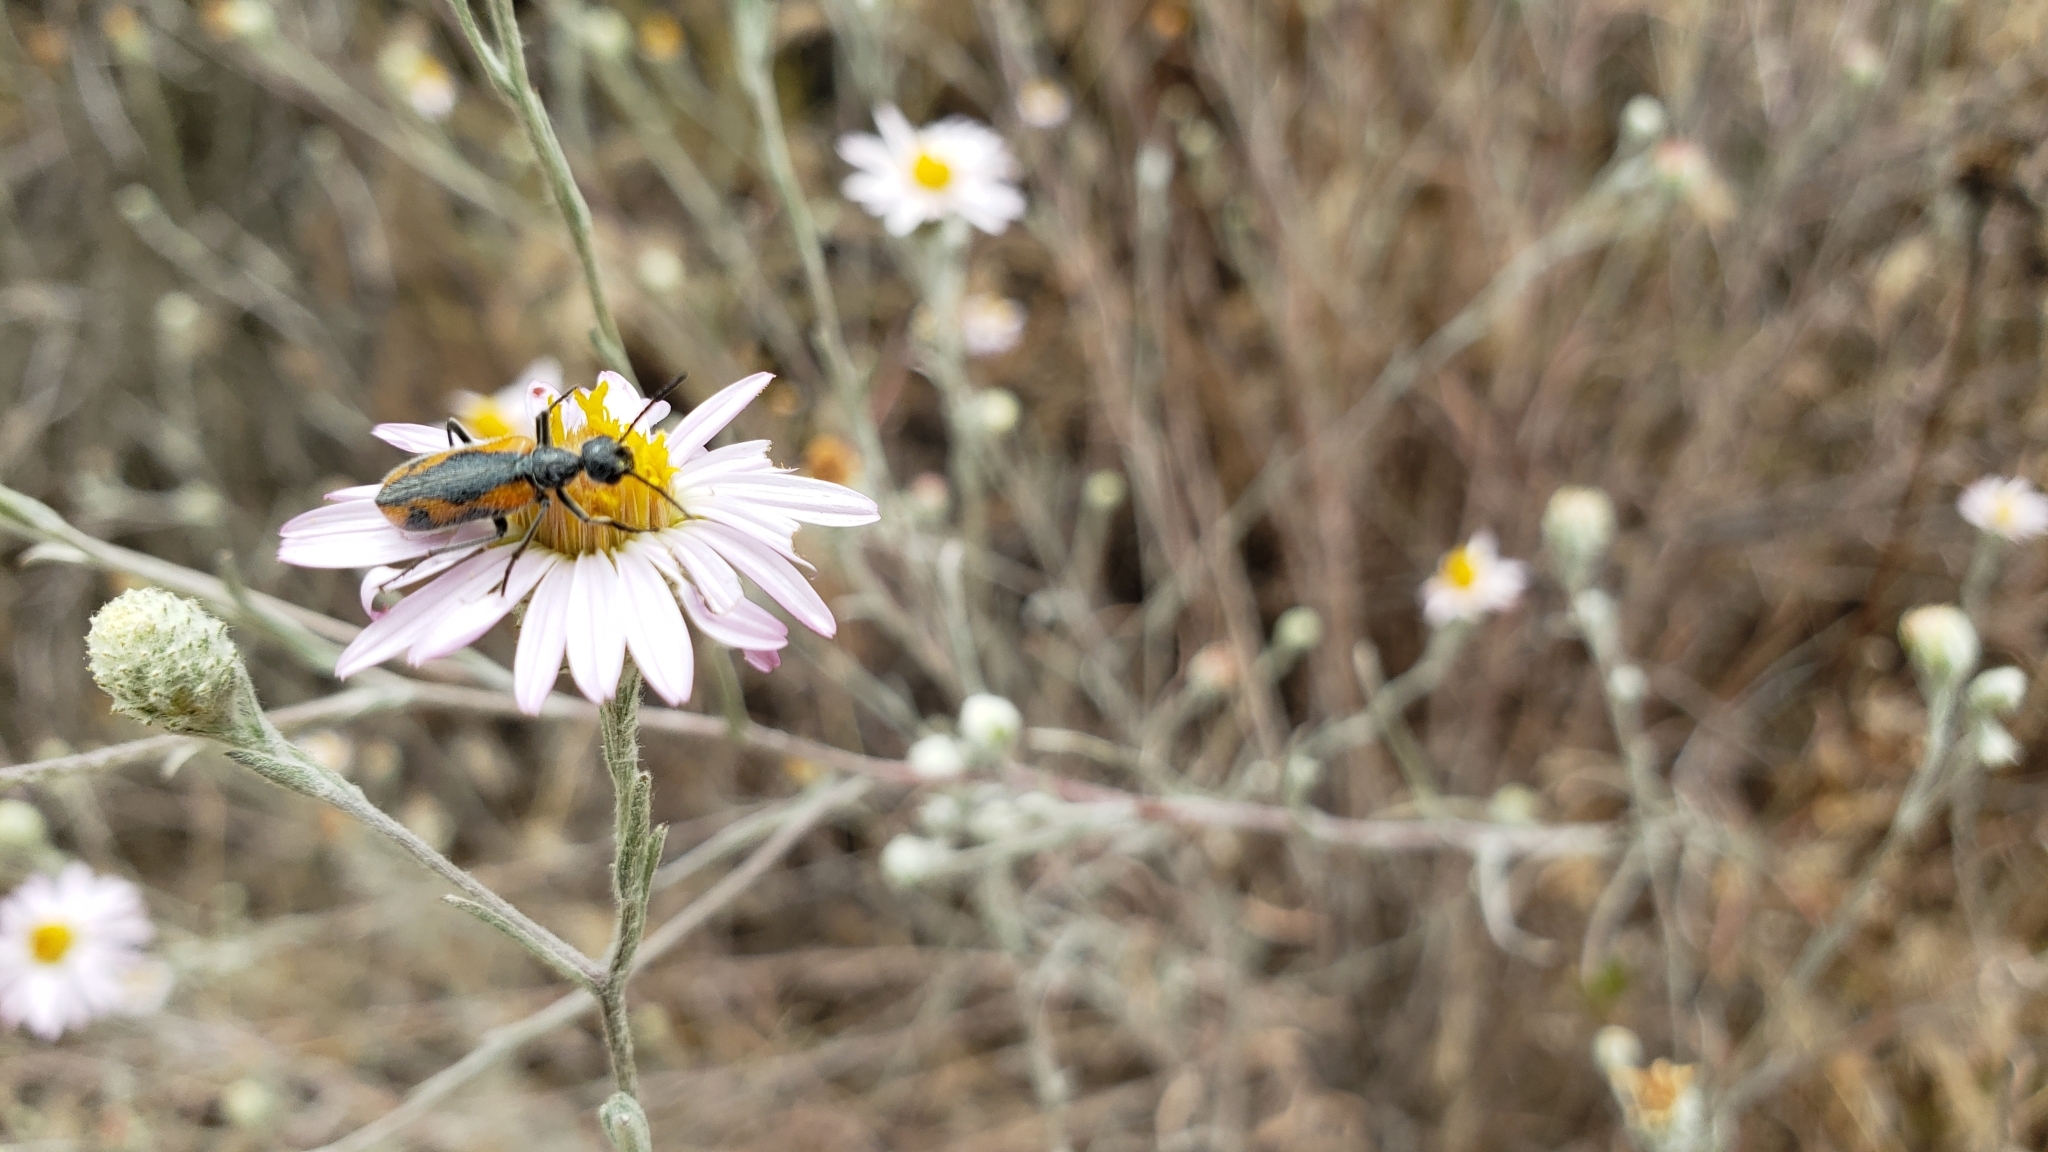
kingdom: Animalia
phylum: Arthropoda
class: Insecta
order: Coleoptera
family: Meloidae
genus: Eupompha
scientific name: Eupompha elegans
